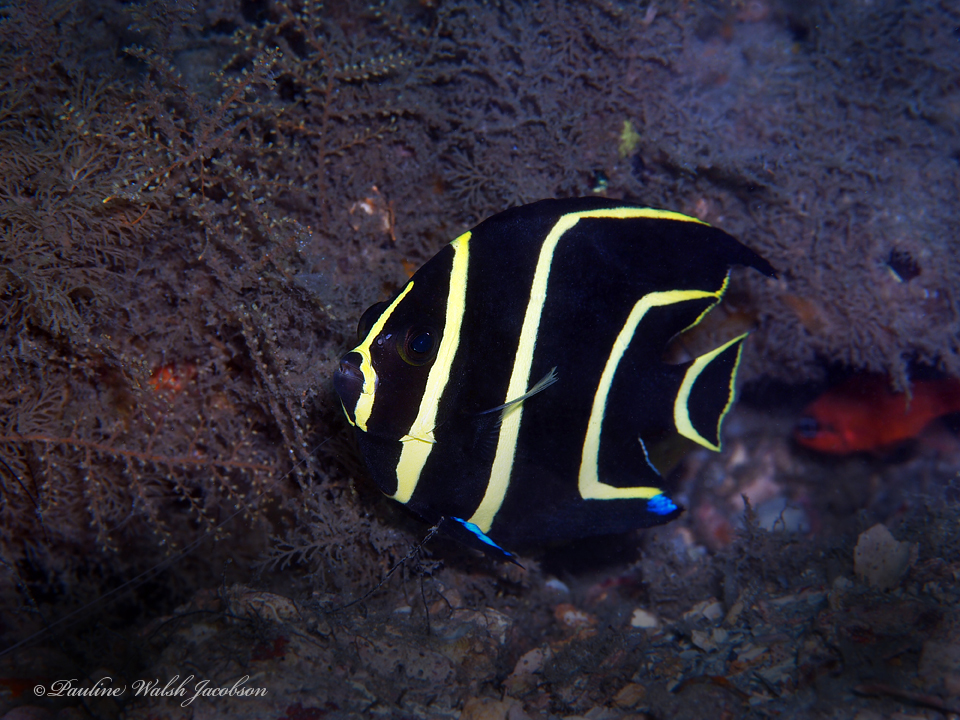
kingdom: Animalia
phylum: Chordata
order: Perciformes
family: Pomacanthidae
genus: Pomacanthus
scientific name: Pomacanthus paru
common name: French angelfish
